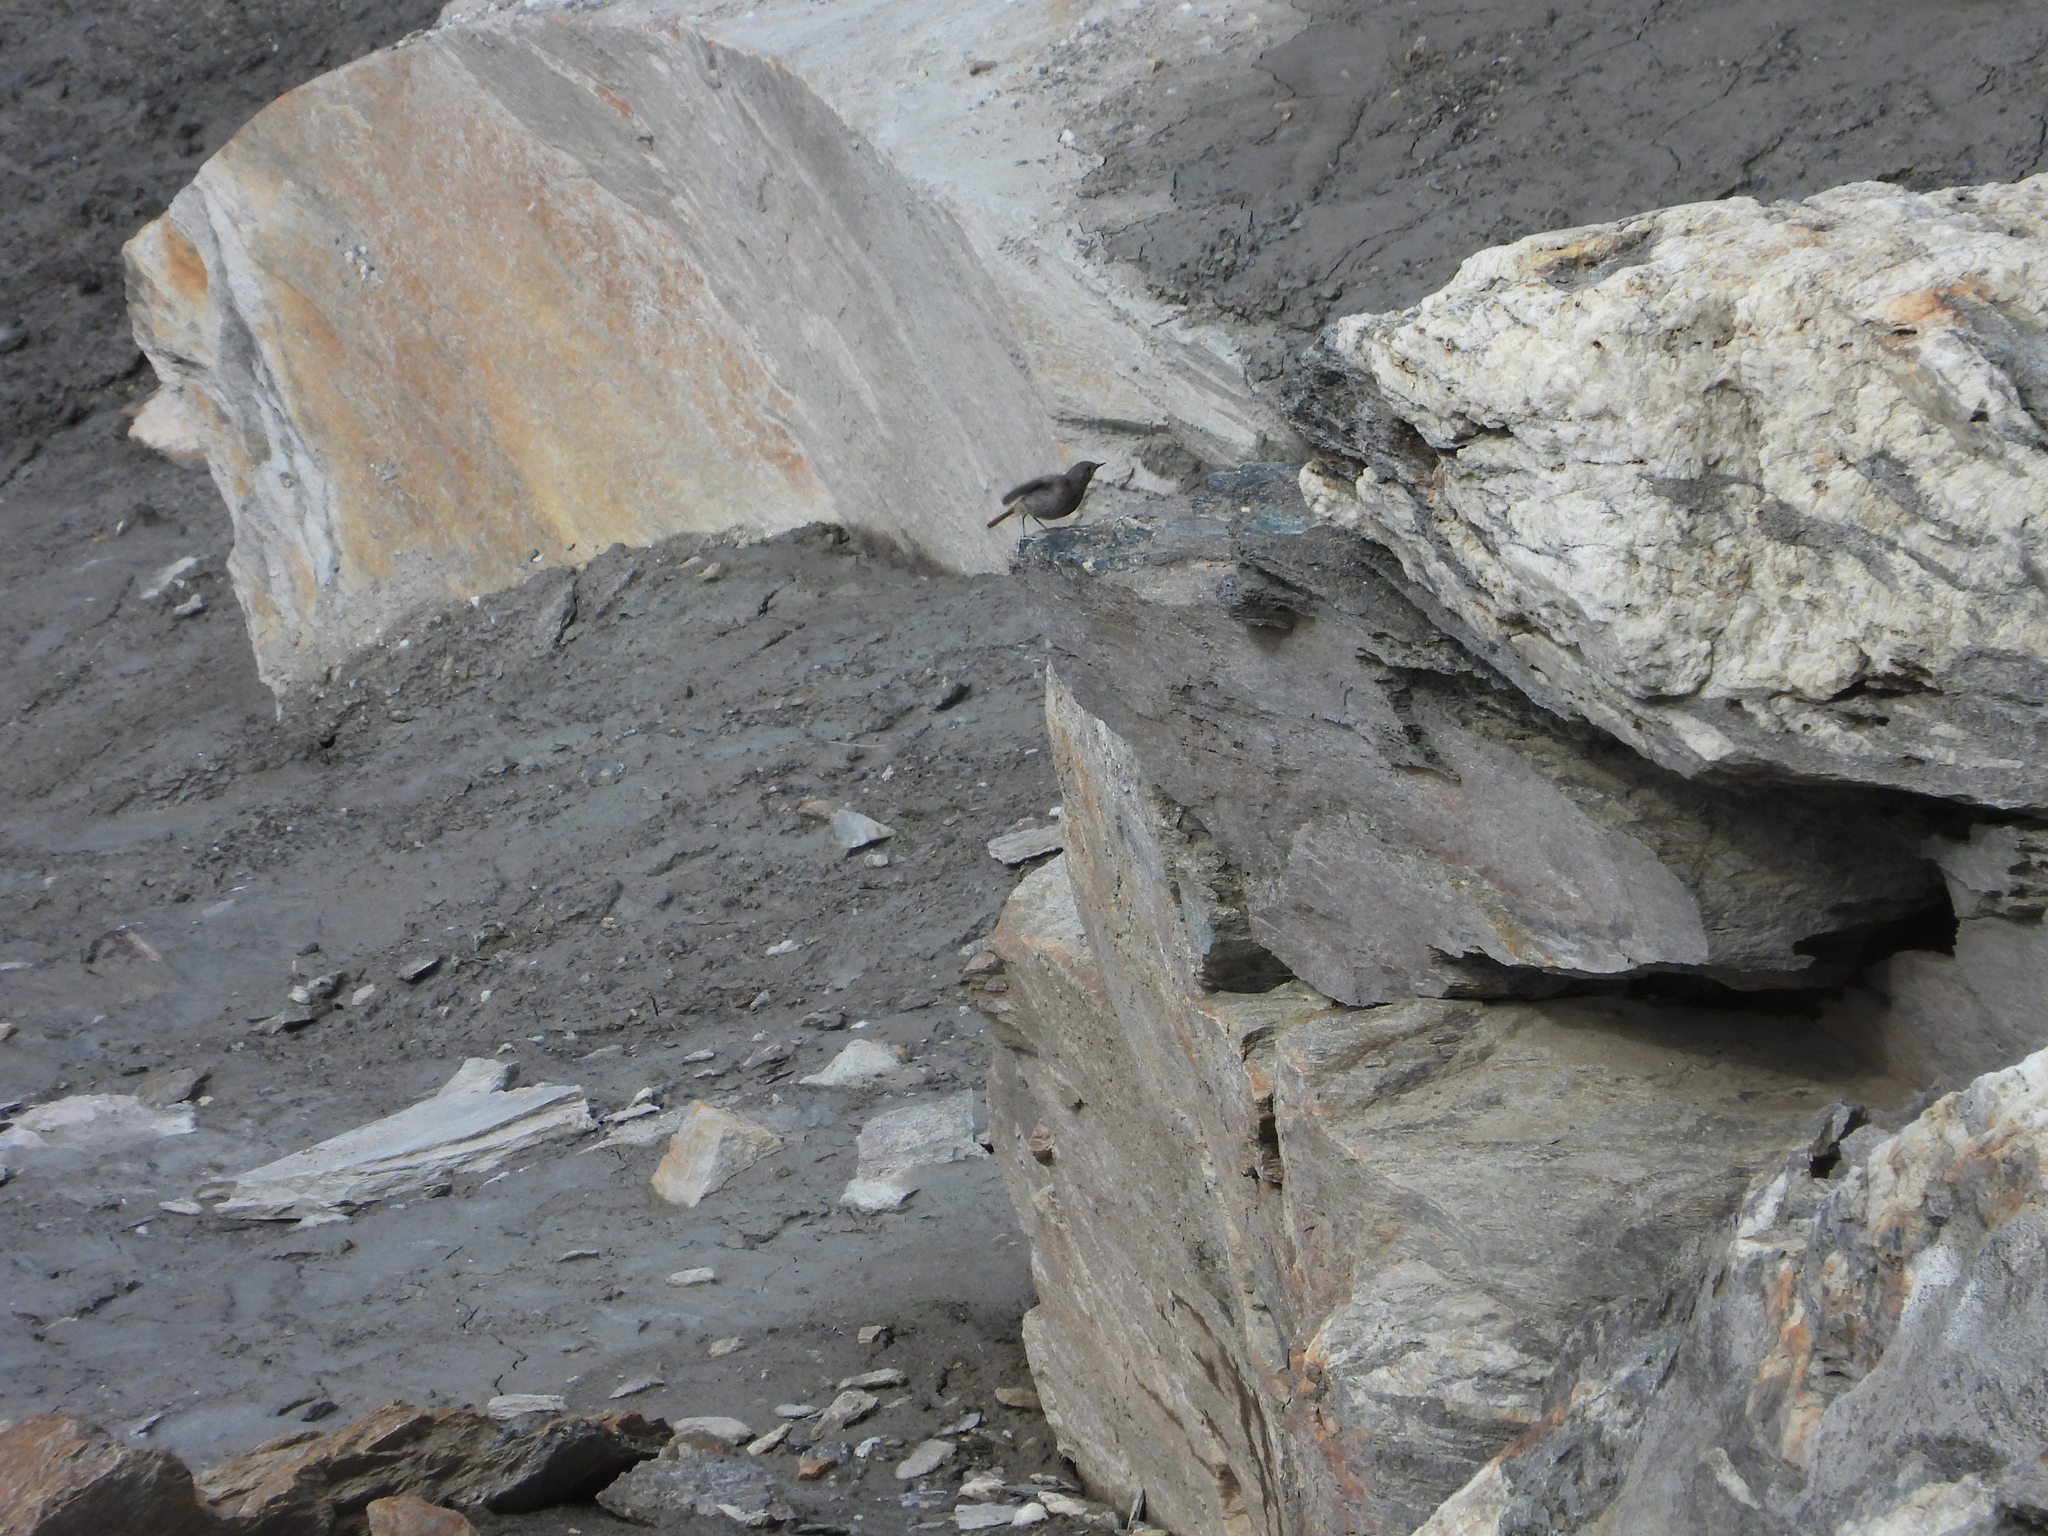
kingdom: Animalia
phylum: Chordata
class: Aves
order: Passeriformes
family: Muscicapidae
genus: Phoenicurus
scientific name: Phoenicurus ochruros
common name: Black redstart
